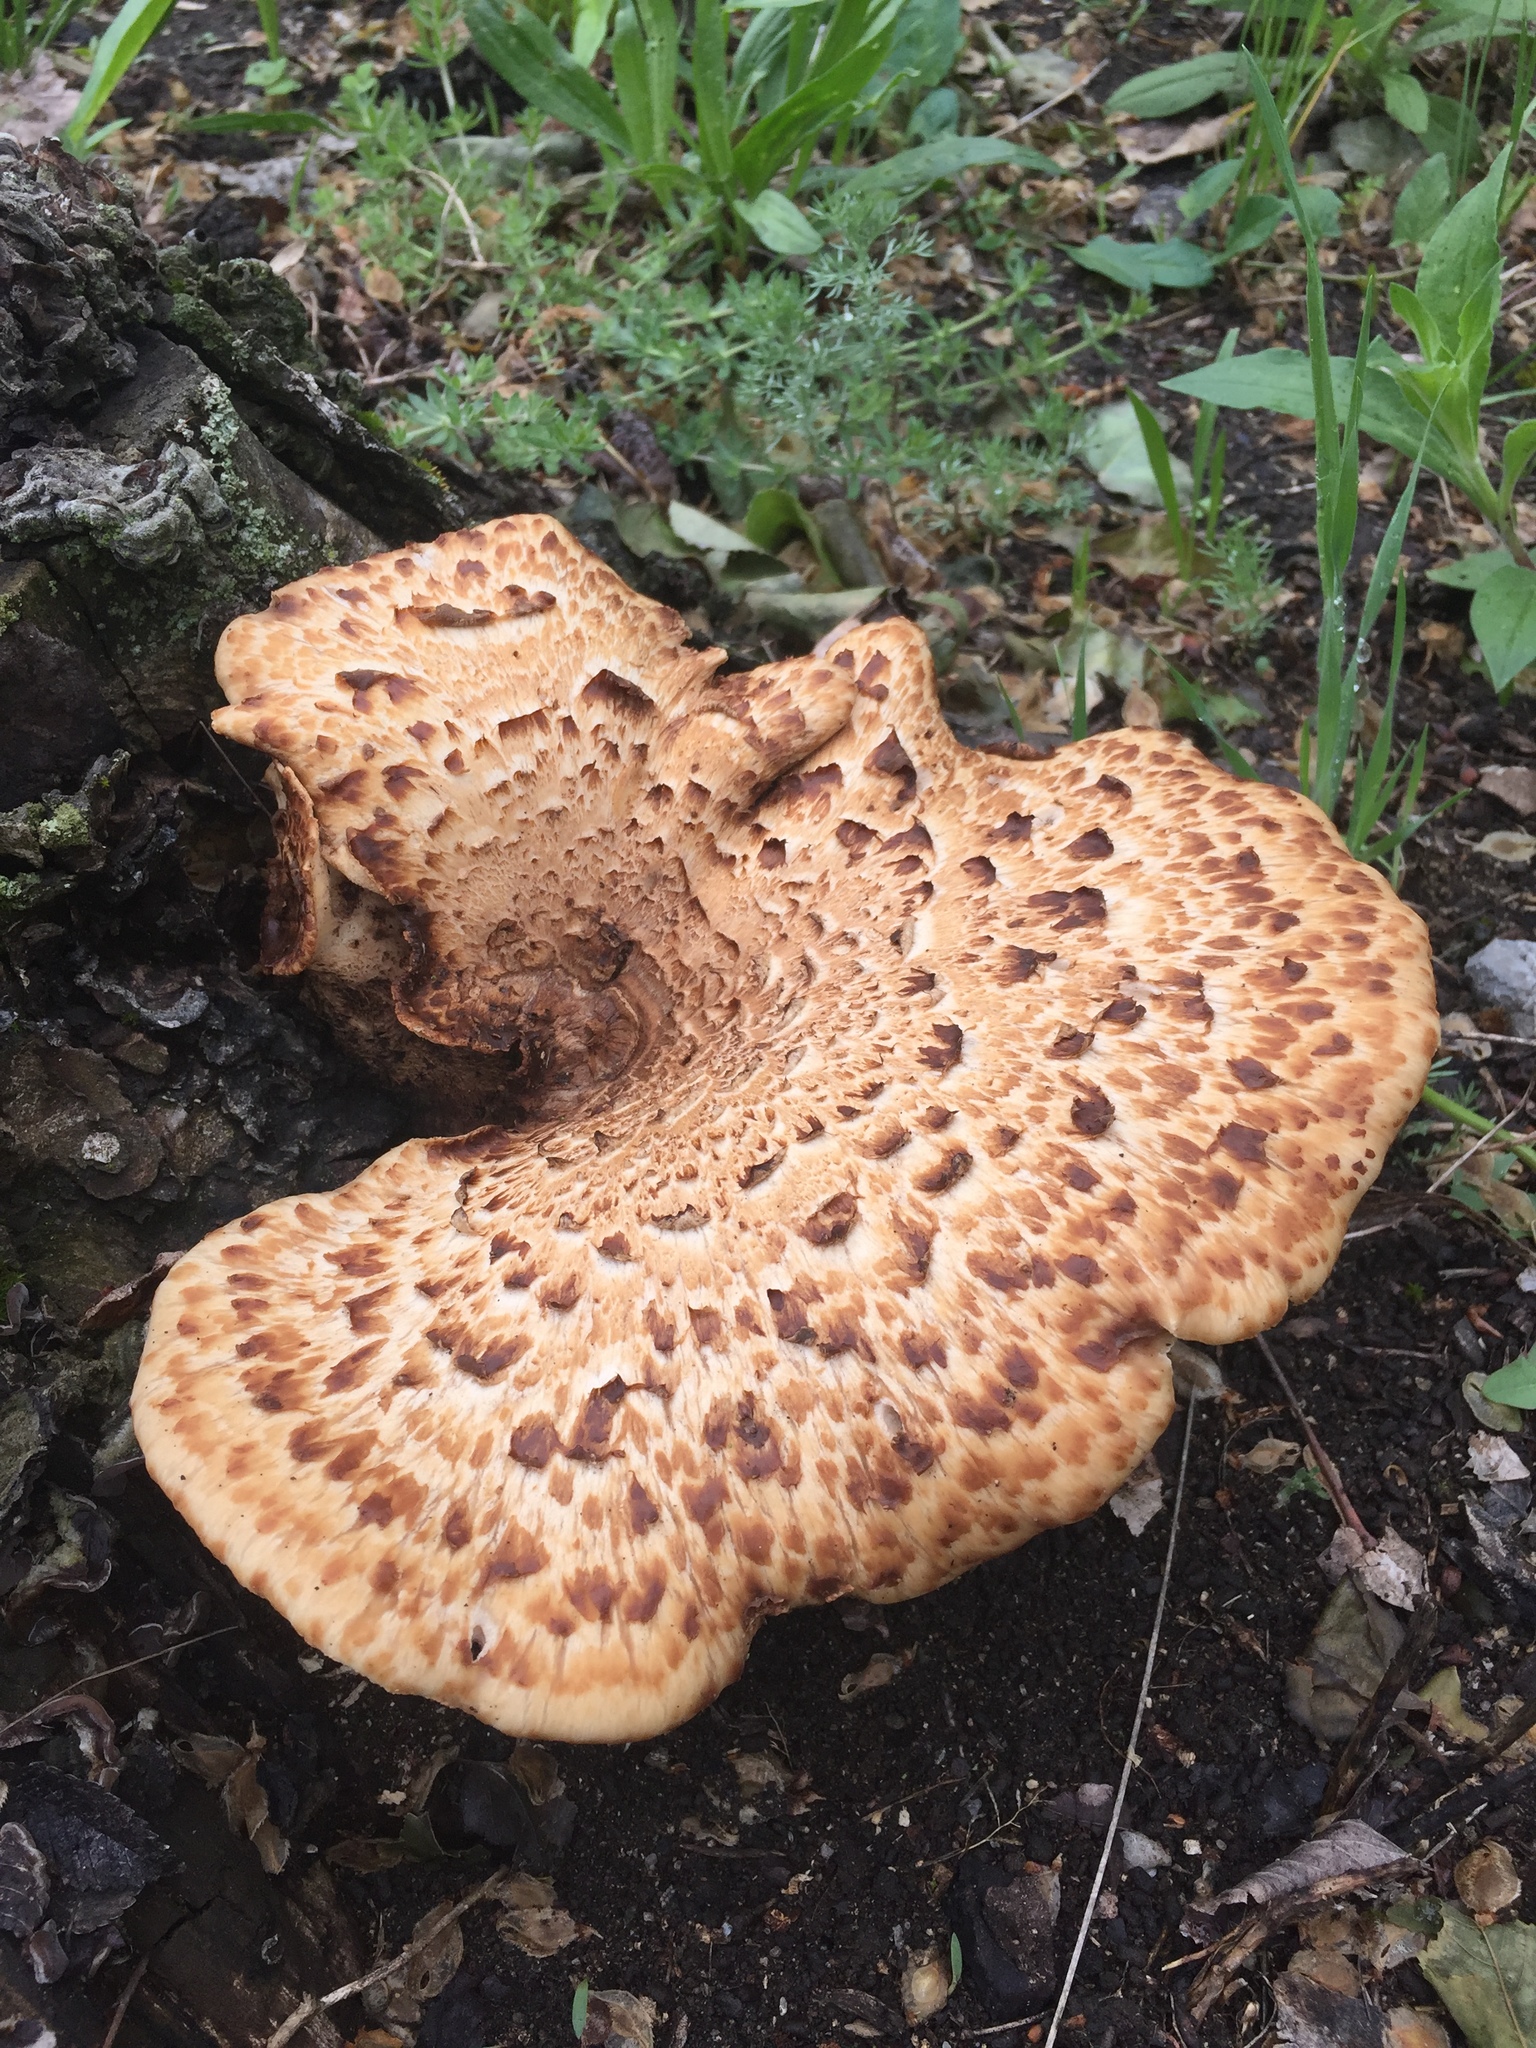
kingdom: Fungi
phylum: Basidiomycota
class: Agaricomycetes
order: Polyporales
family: Polyporaceae
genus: Cerioporus
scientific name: Cerioporus squamosus
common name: Dryad's saddle
